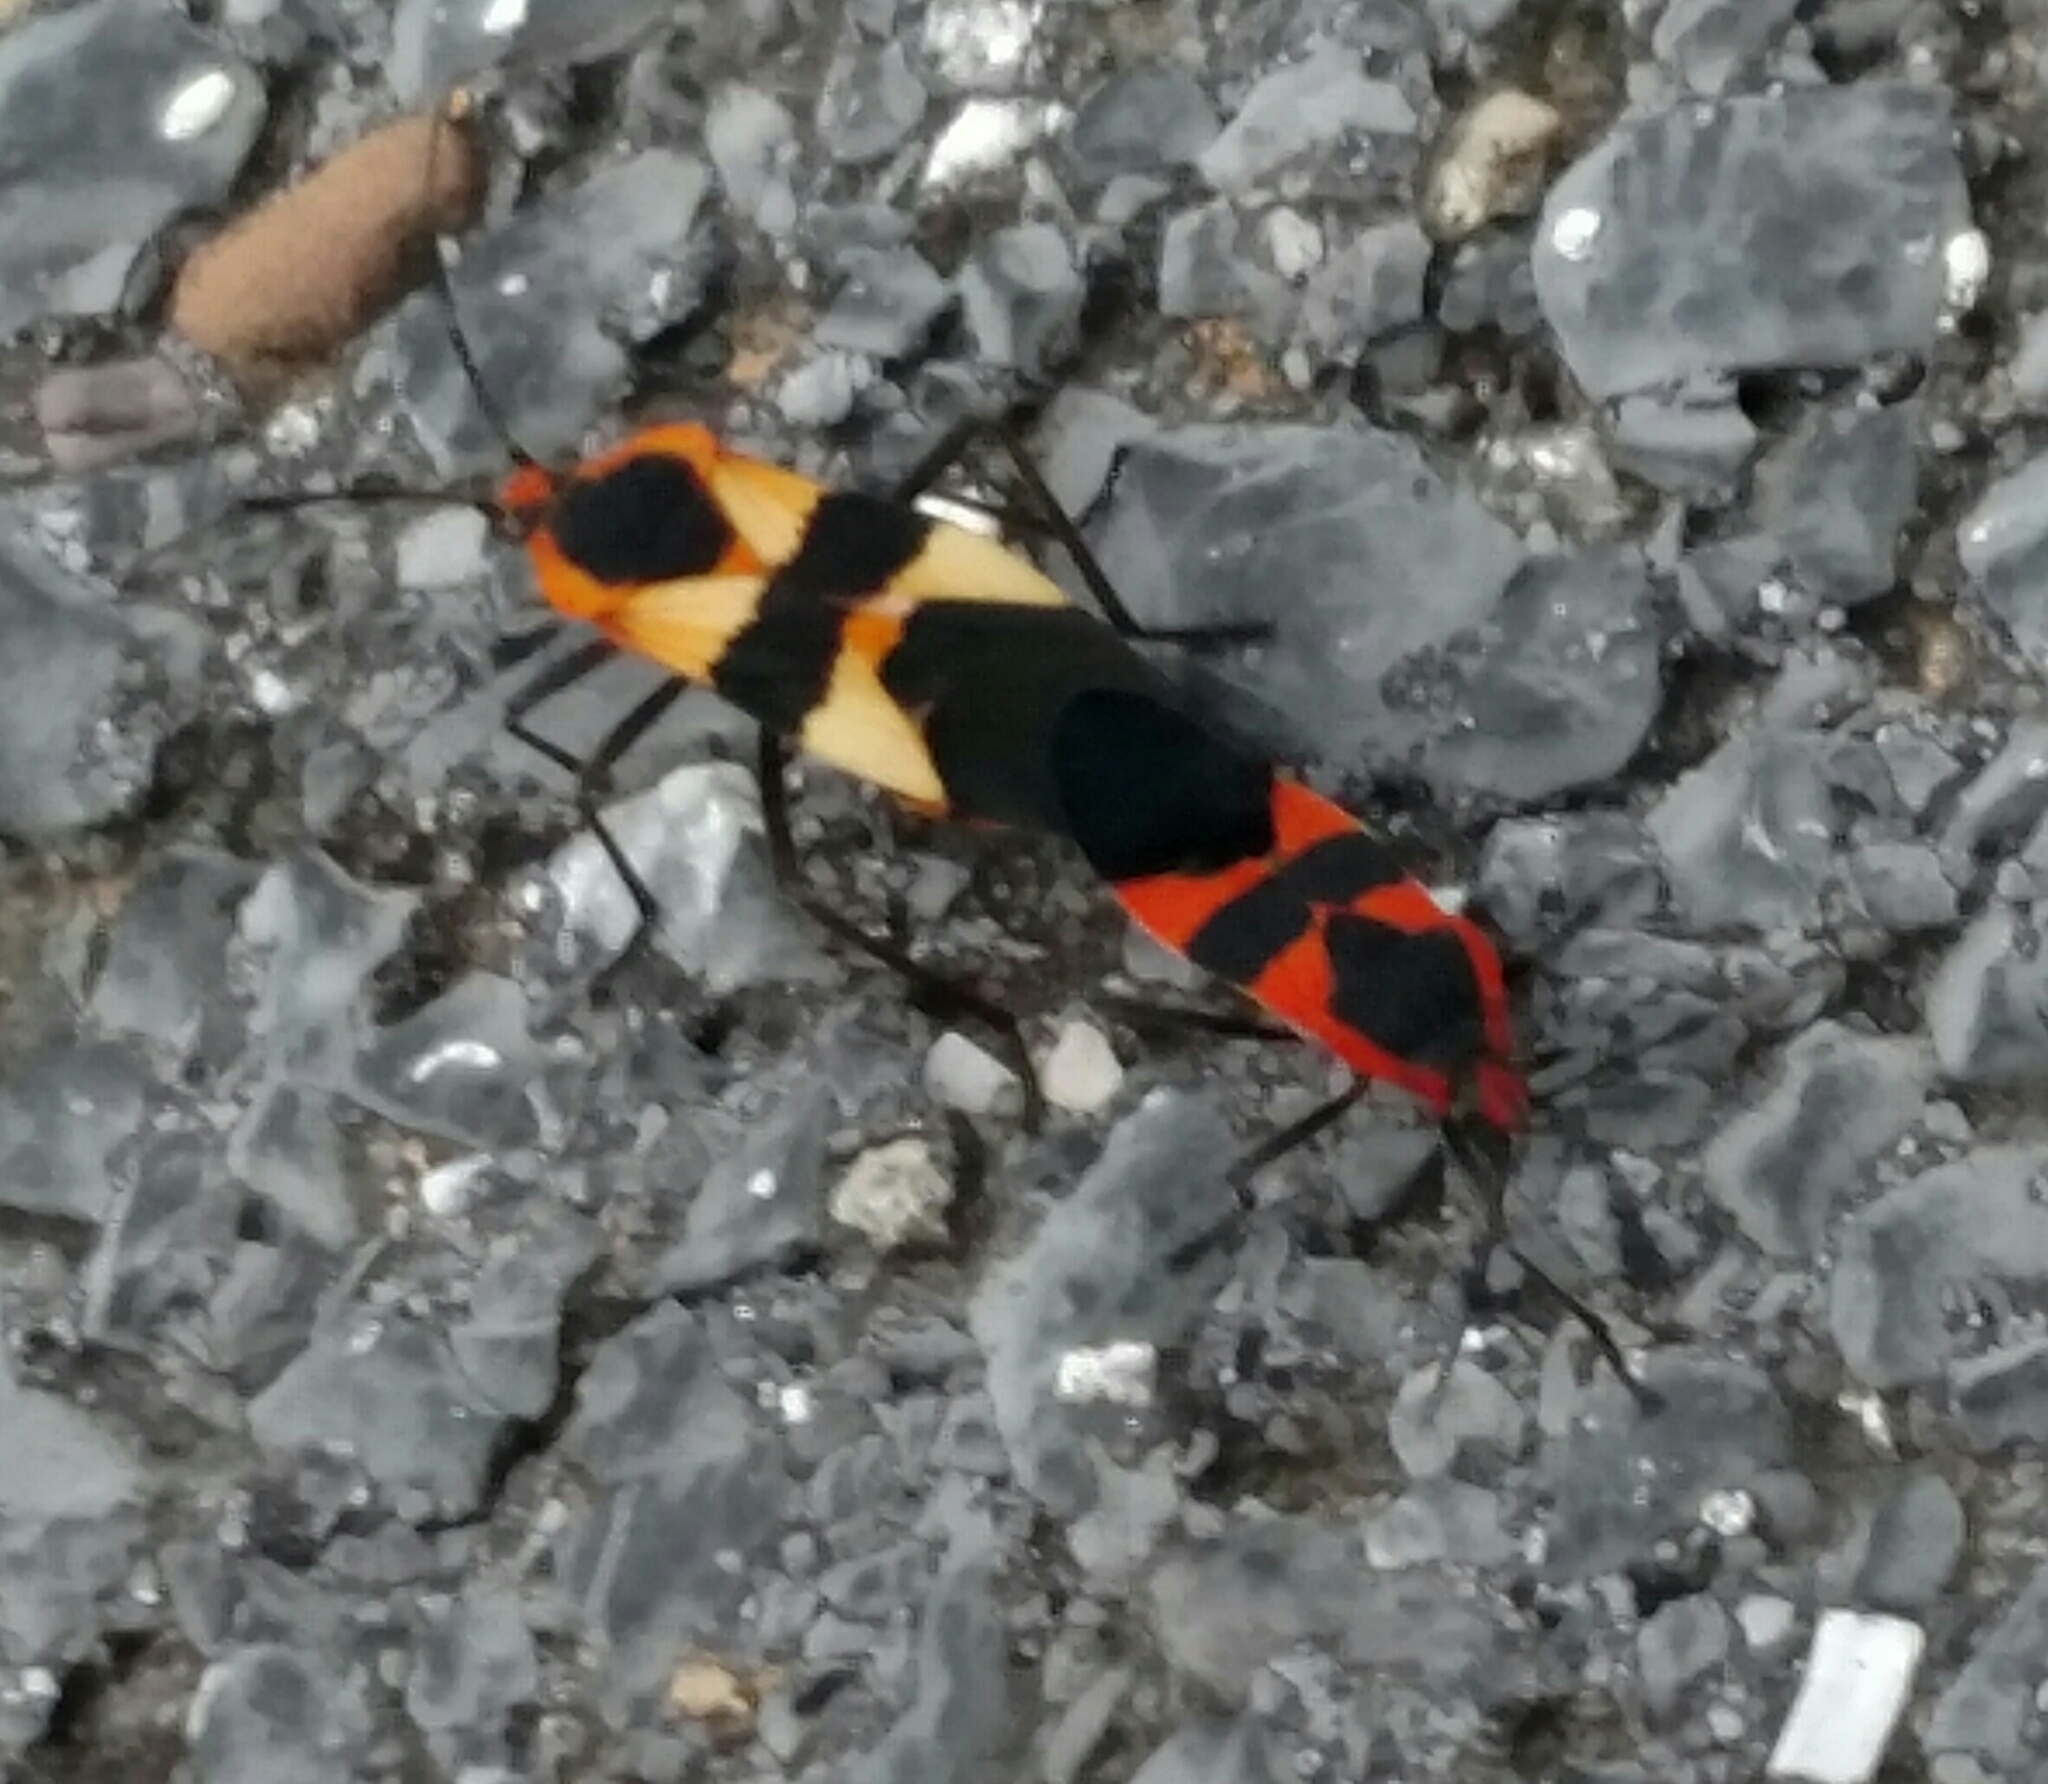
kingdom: Animalia
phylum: Arthropoda
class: Insecta
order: Hemiptera
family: Lygaeidae
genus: Oncopeltus
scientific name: Oncopeltus fasciatus
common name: Large milkweed bug
